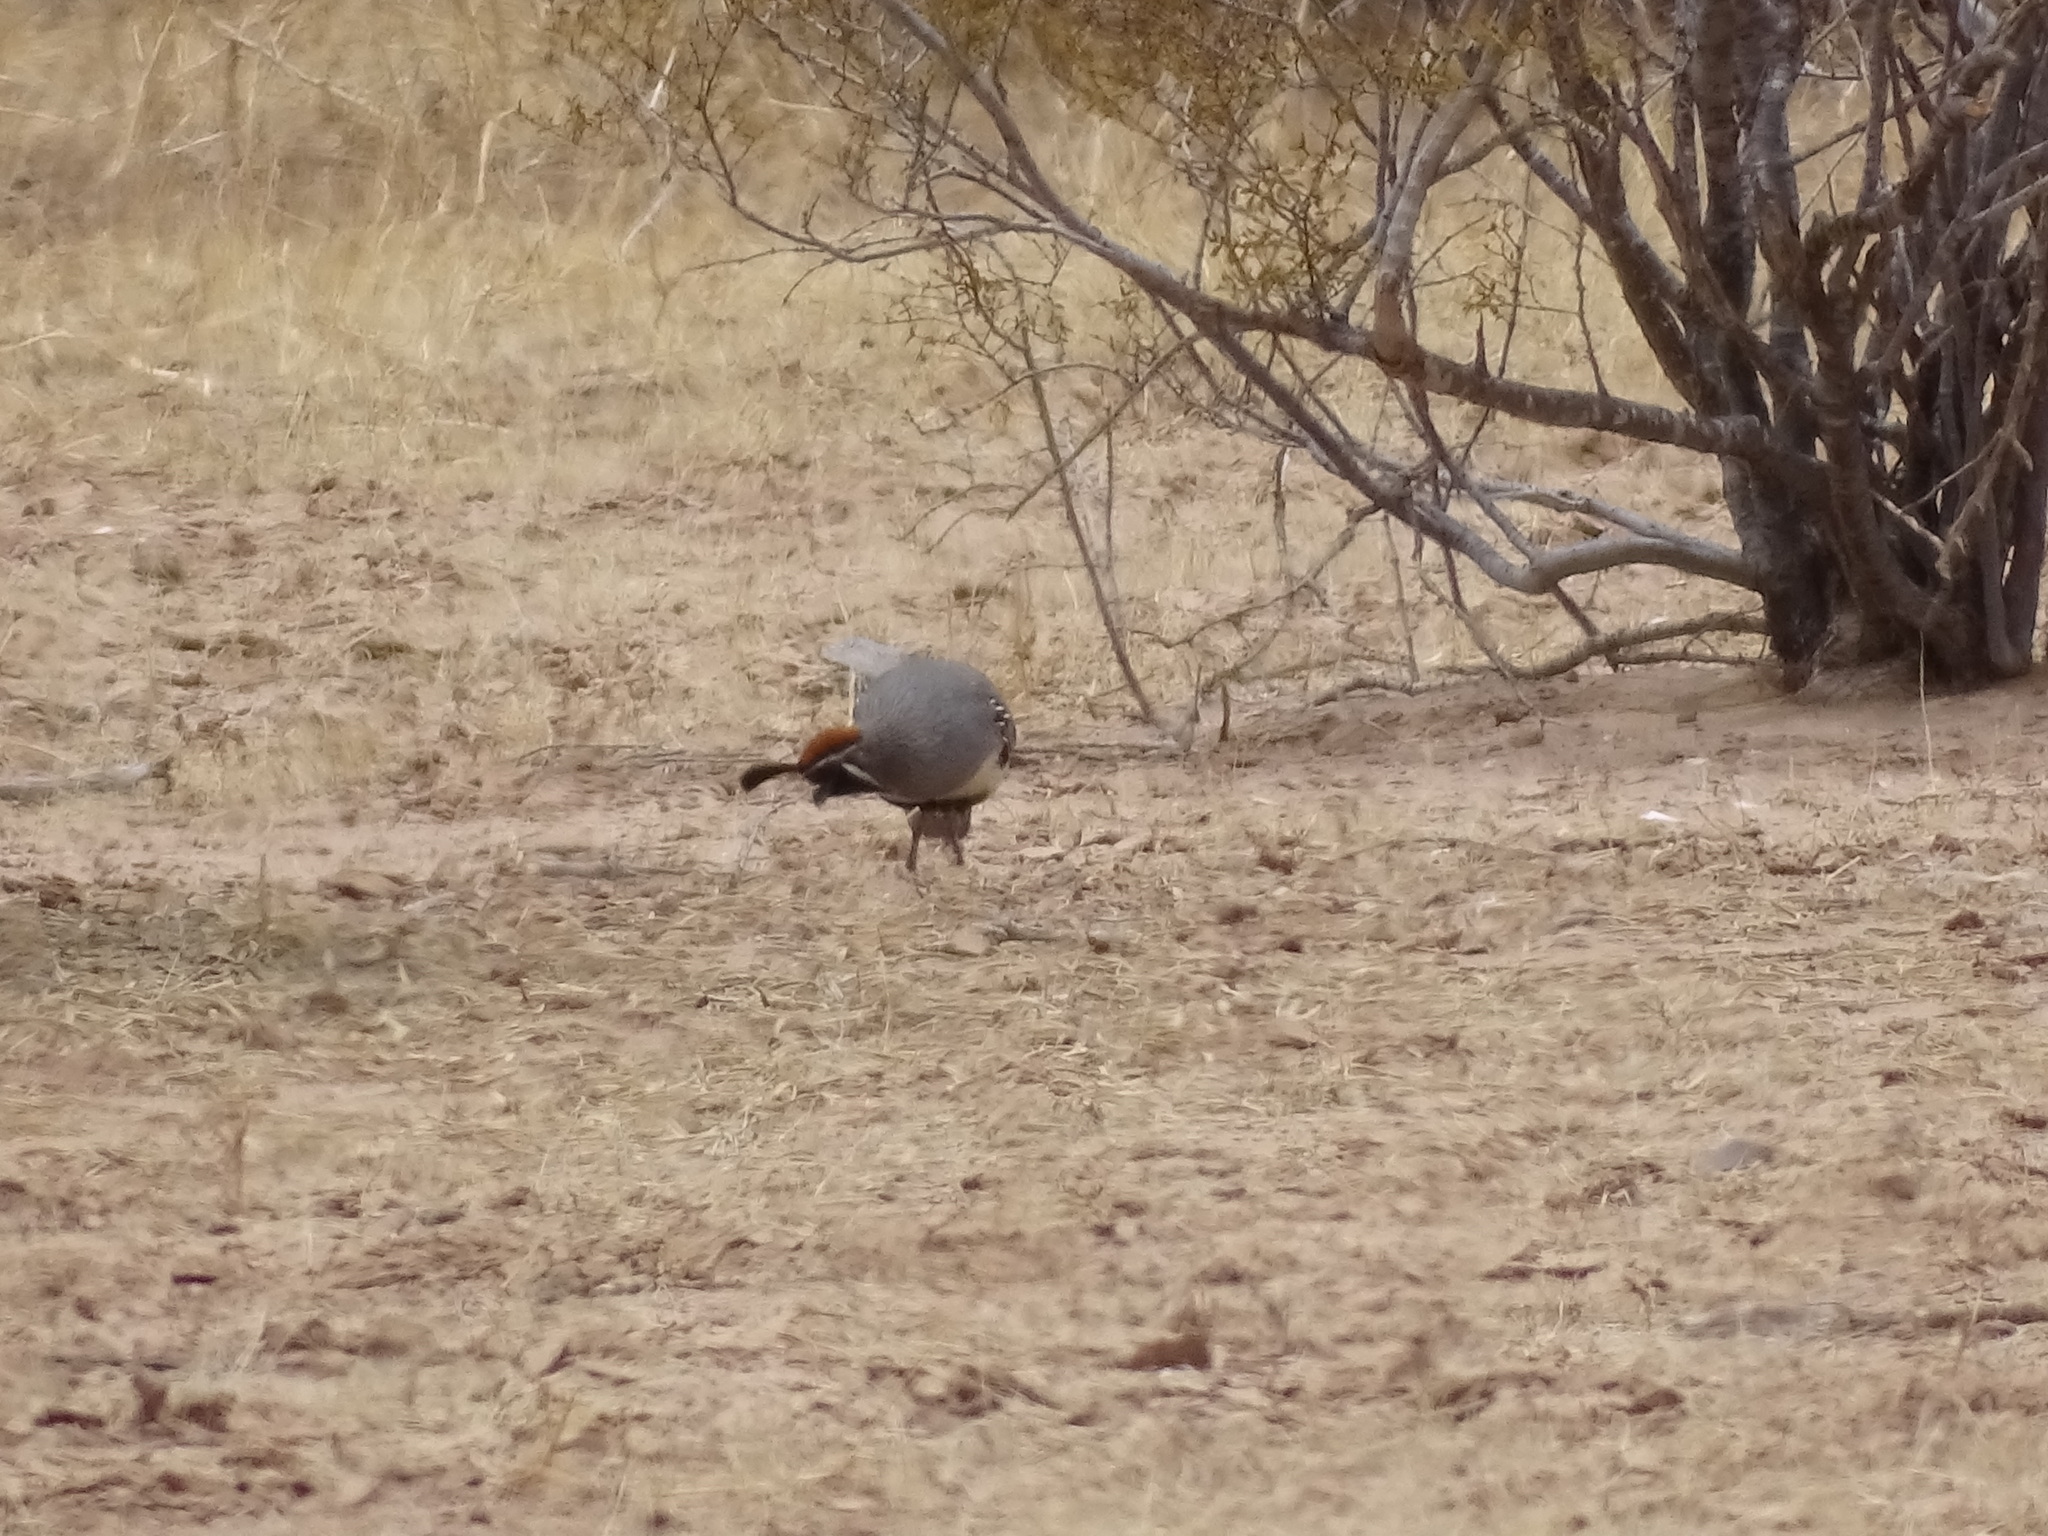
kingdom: Animalia
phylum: Chordata
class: Aves
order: Galliformes
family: Odontophoridae
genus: Callipepla
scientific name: Callipepla gambelii
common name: Gambel's quail
